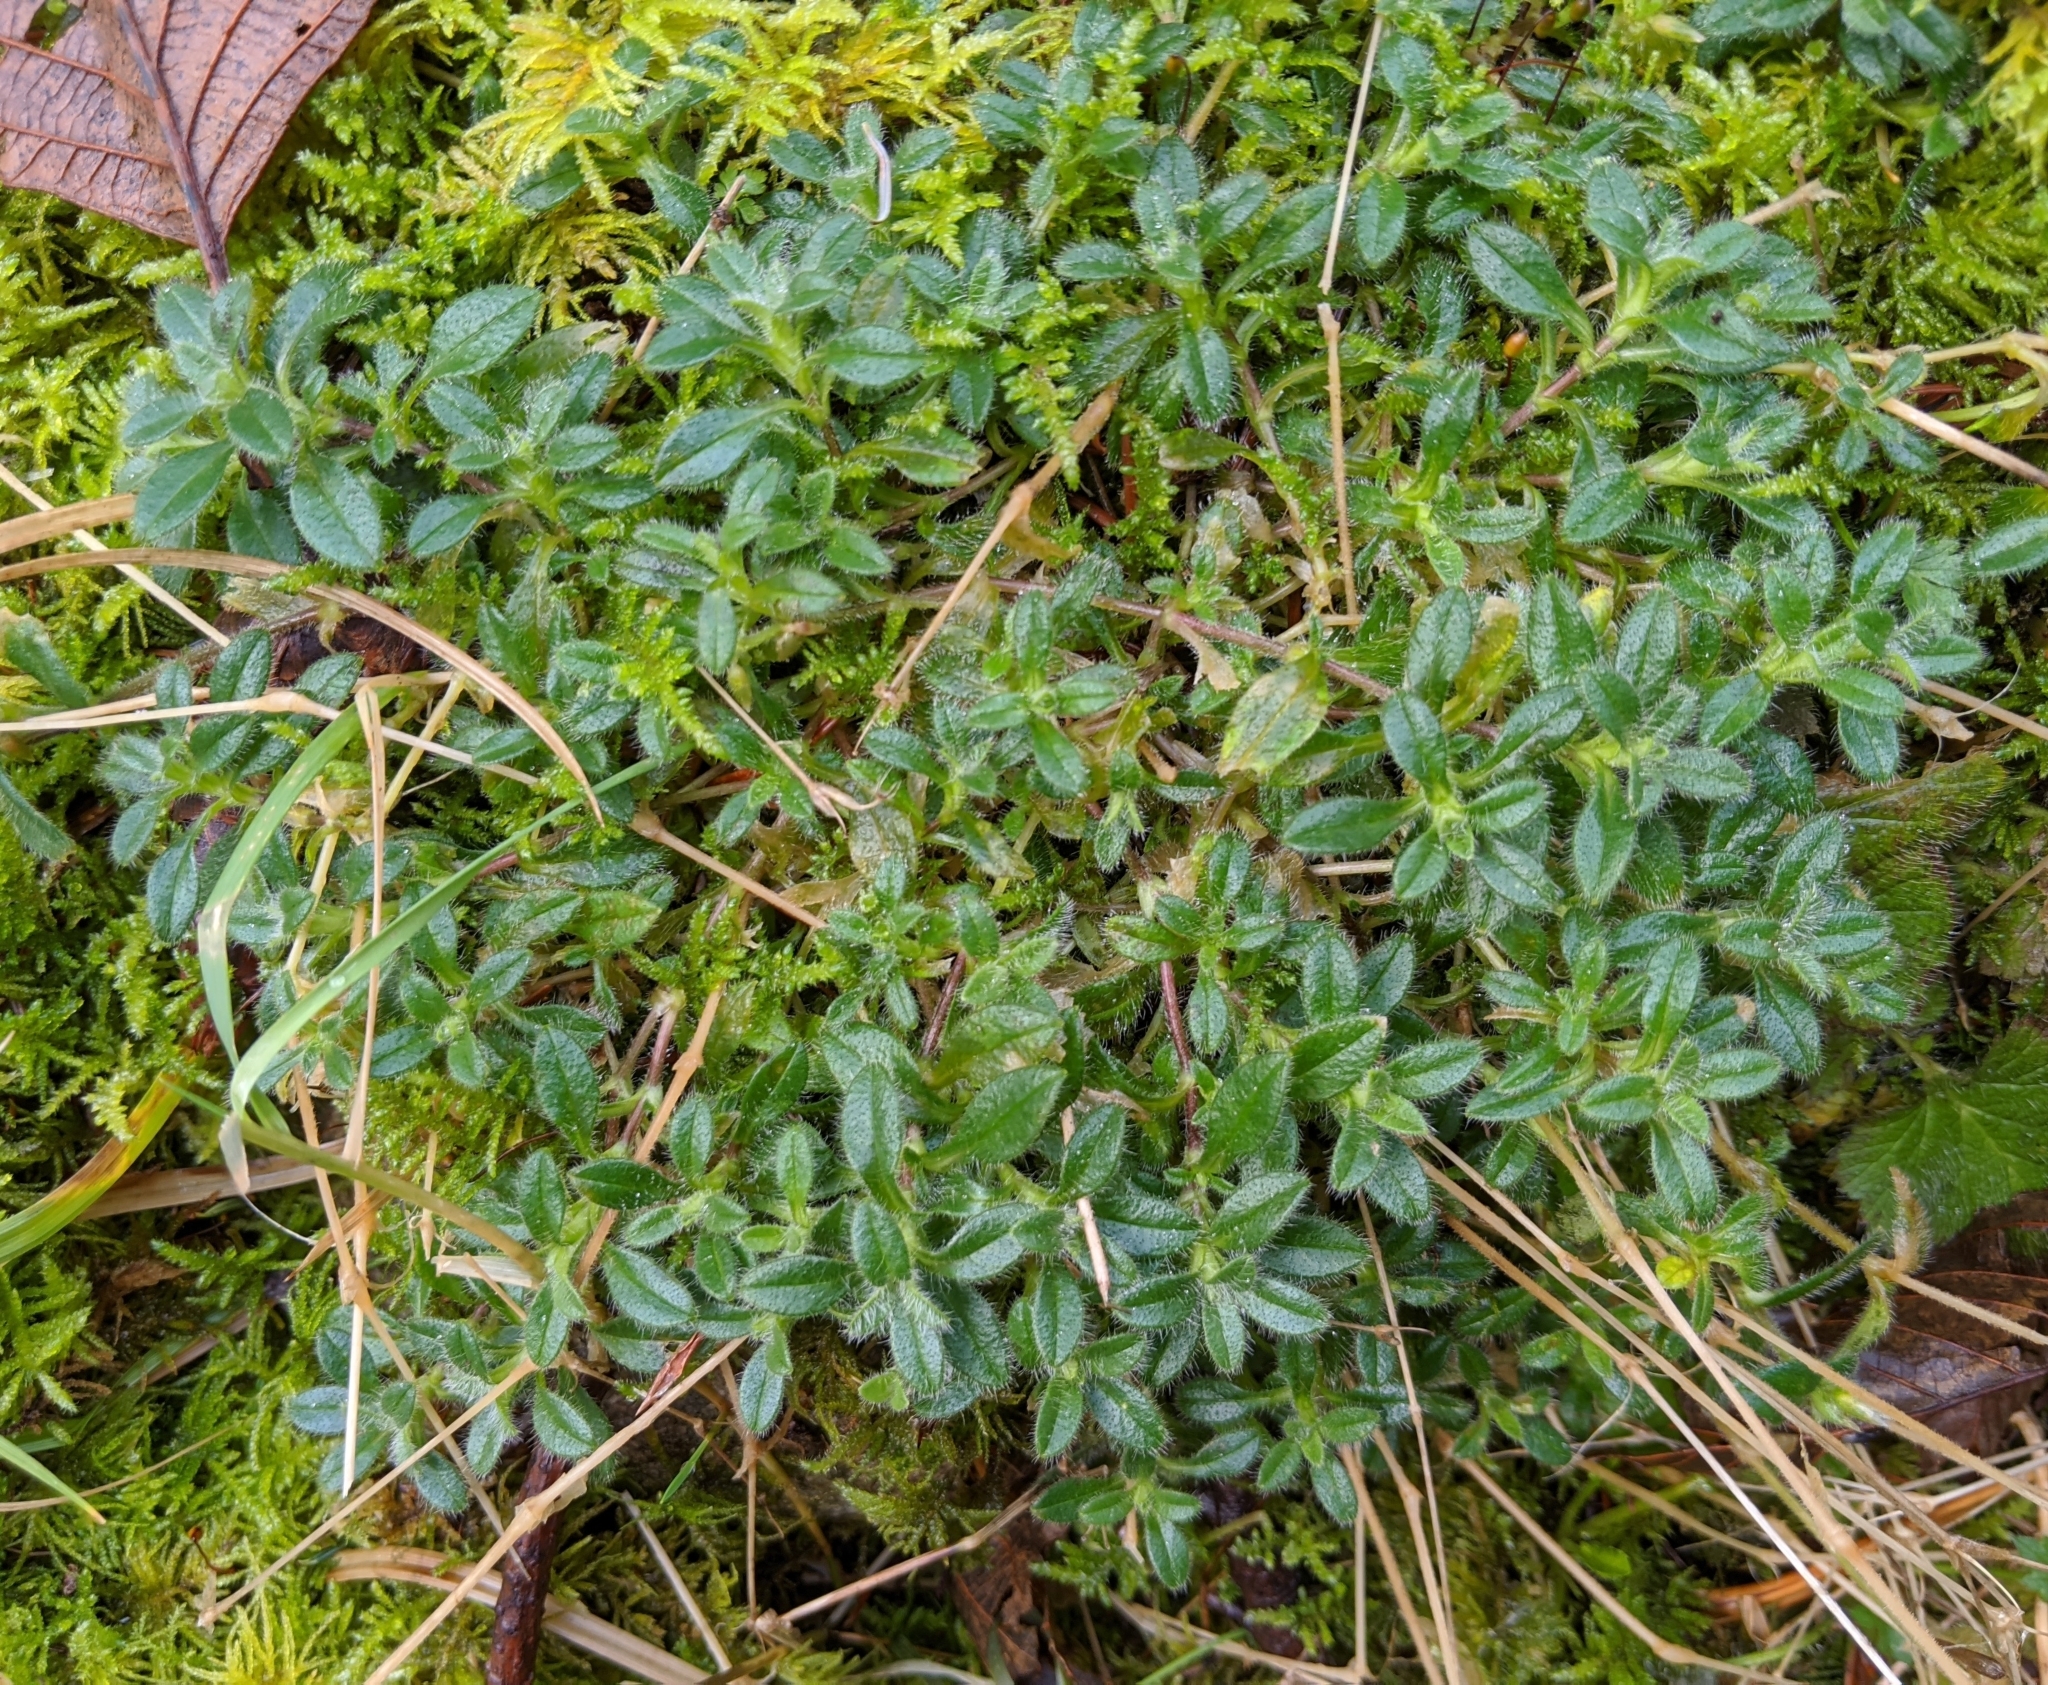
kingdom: Plantae
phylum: Tracheophyta
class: Magnoliopsida
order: Caryophyllales
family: Caryophyllaceae
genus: Cerastium
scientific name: Cerastium fontanum
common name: Common mouse-ear
